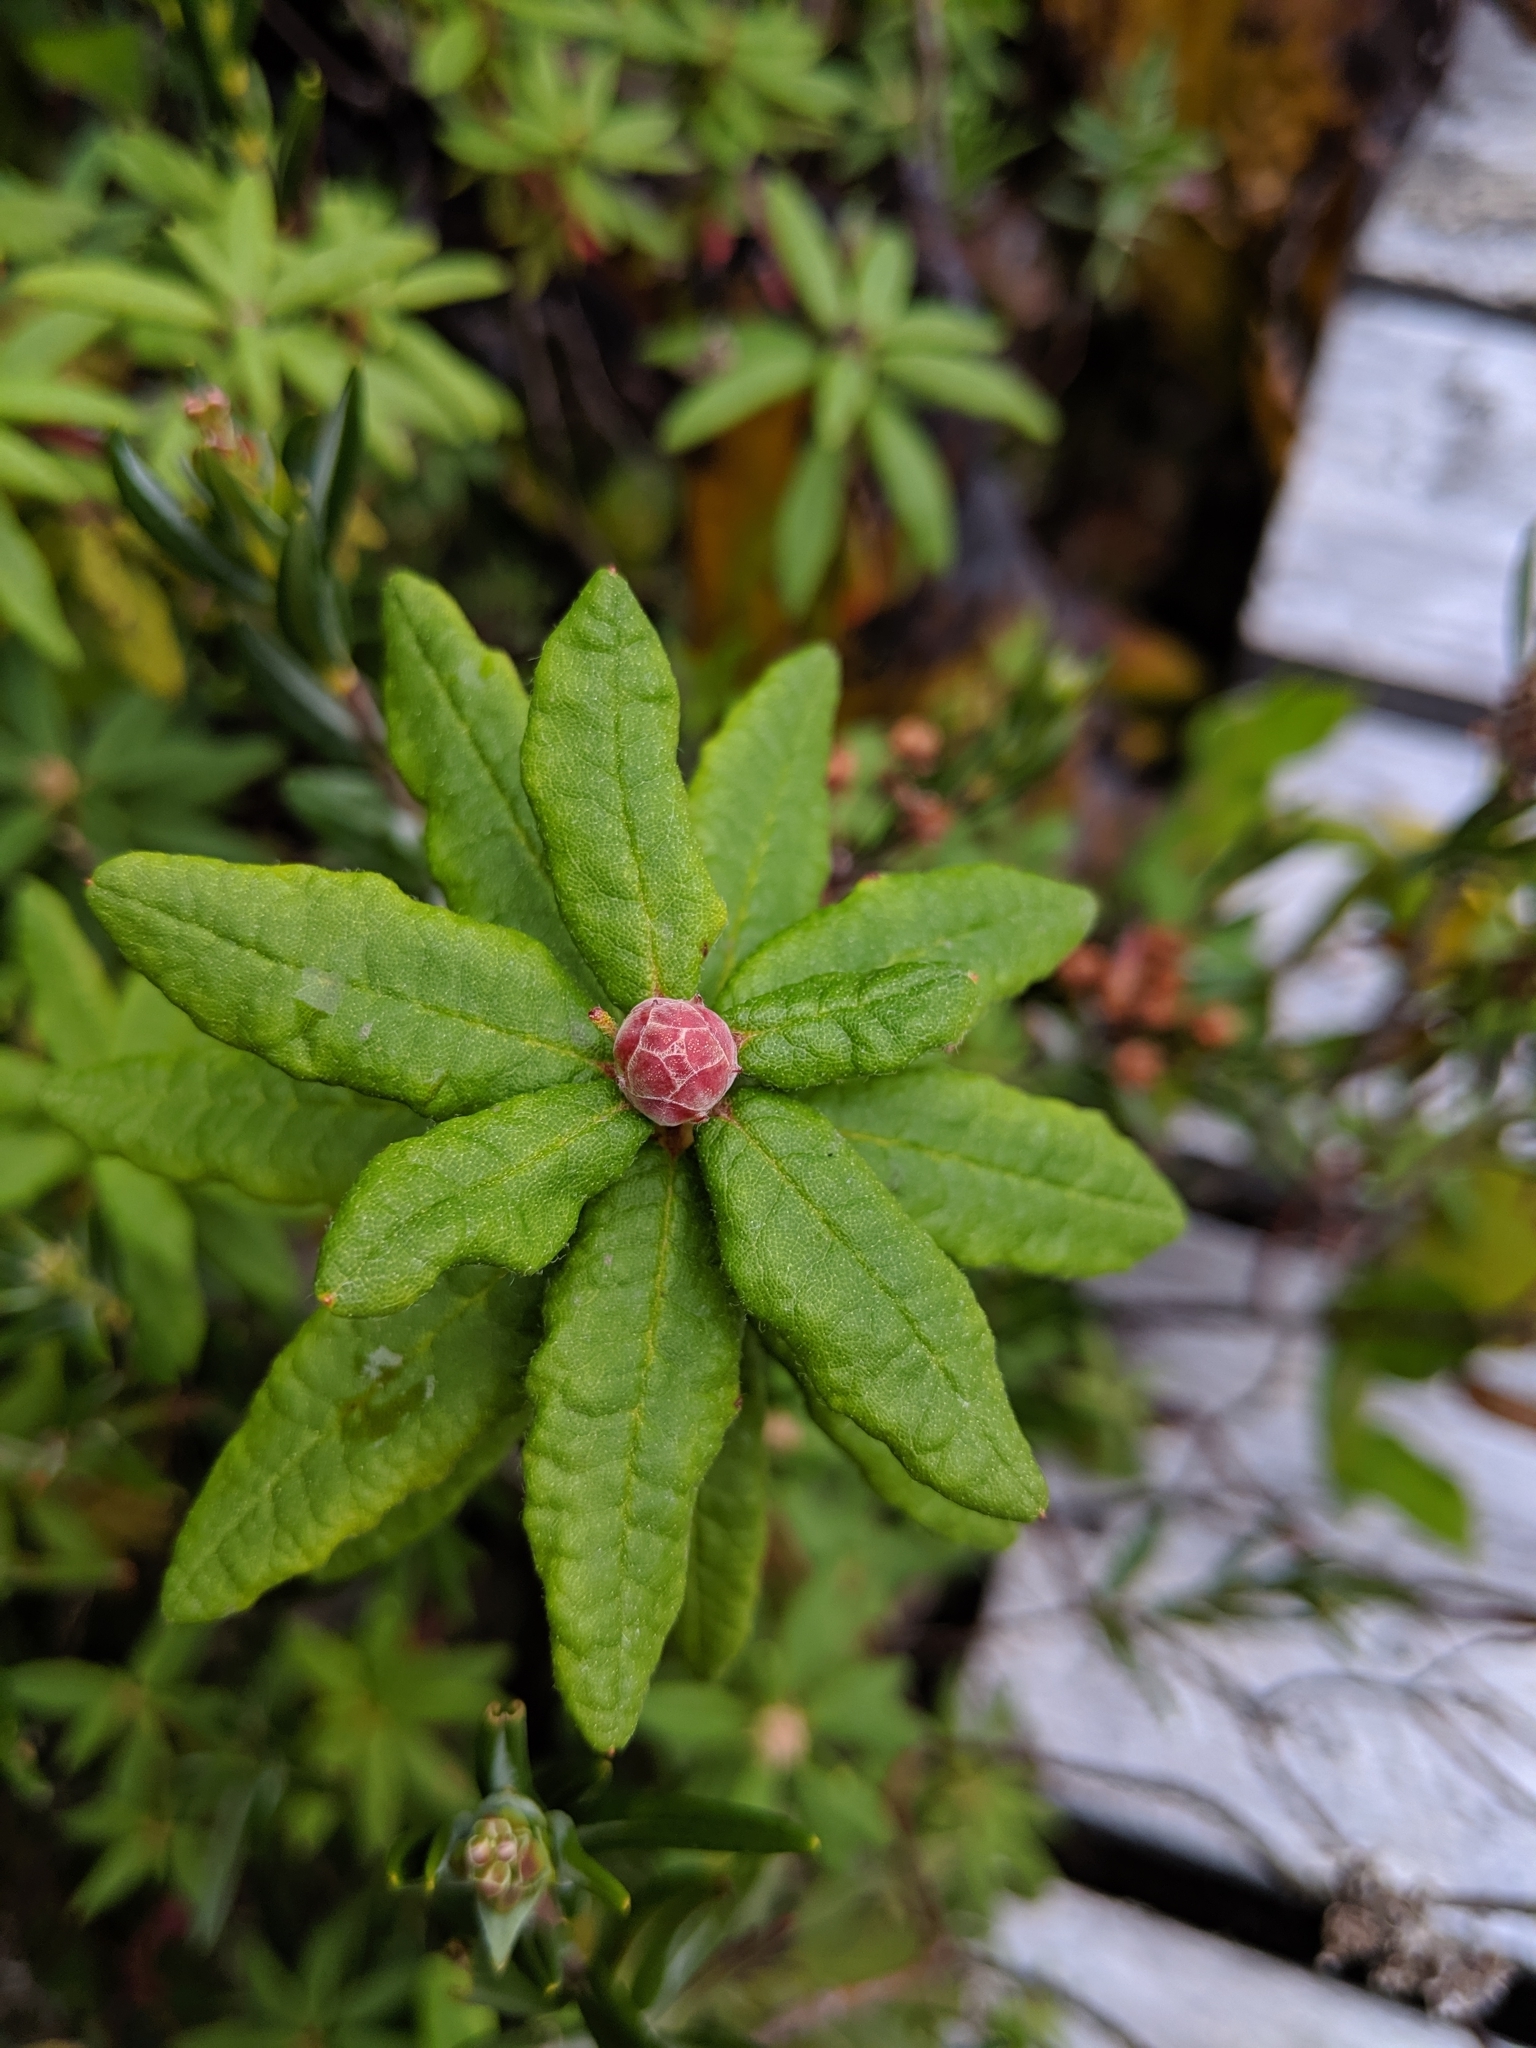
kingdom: Plantae
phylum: Tracheophyta
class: Magnoliopsida
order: Ericales
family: Ericaceae
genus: Rhododendron
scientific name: Rhododendron groenlandicum
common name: Bog labrador tea
